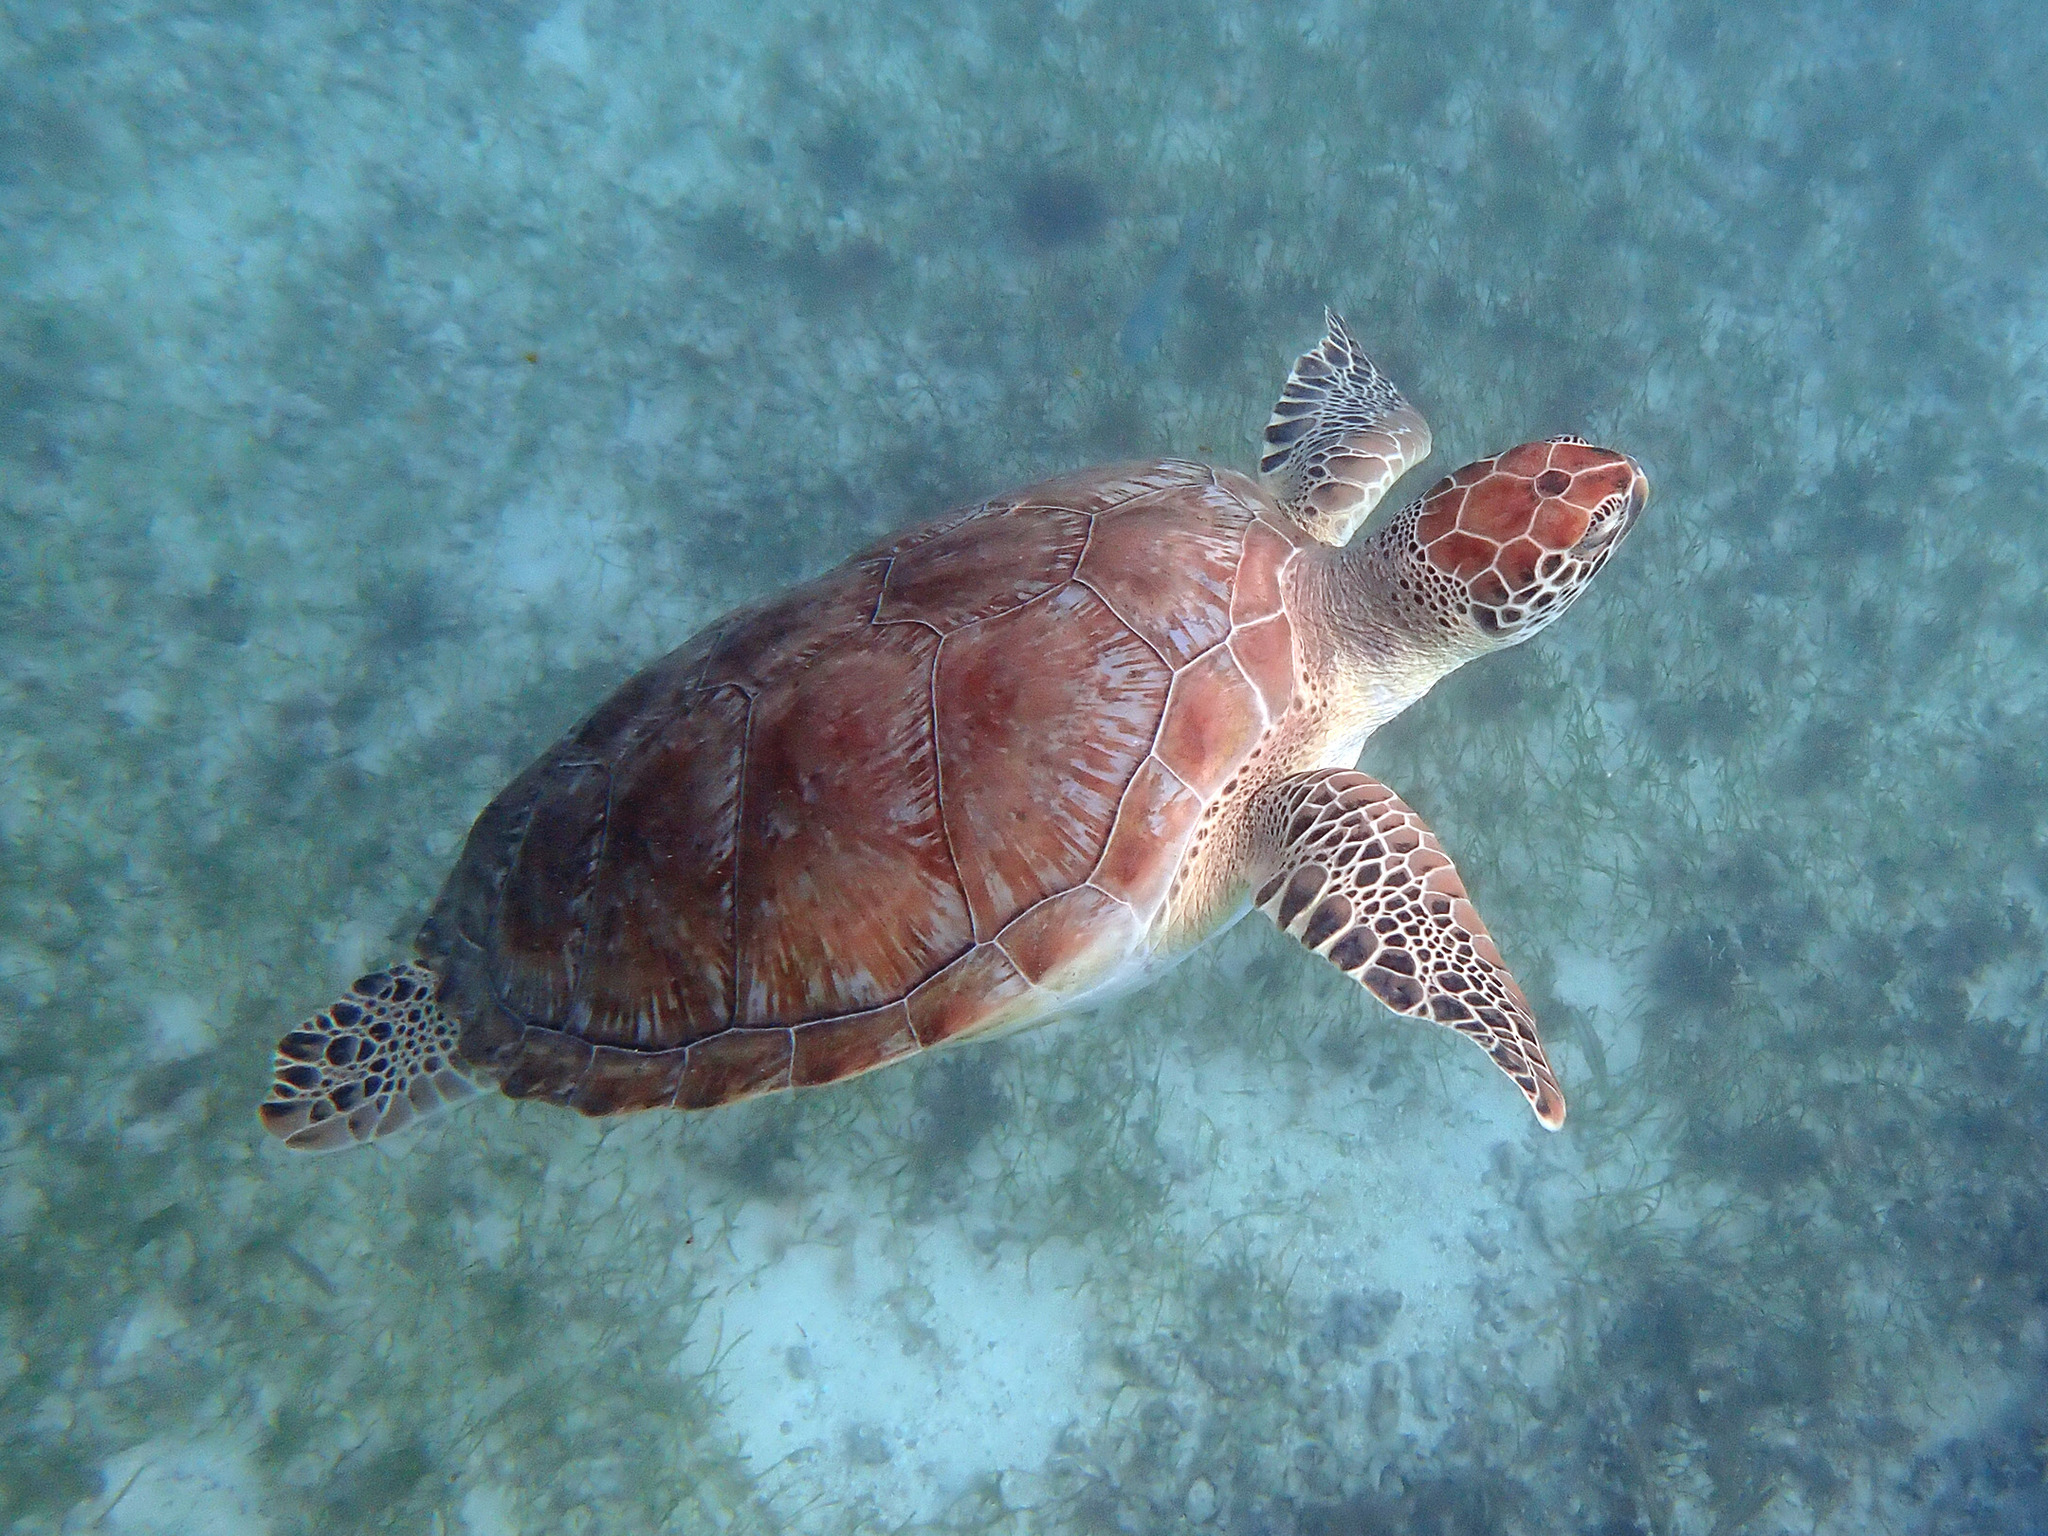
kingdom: Animalia
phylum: Chordata
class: Testudines
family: Cheloniidae
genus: Chelonia
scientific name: Chelonia mydas
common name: Green turtle
